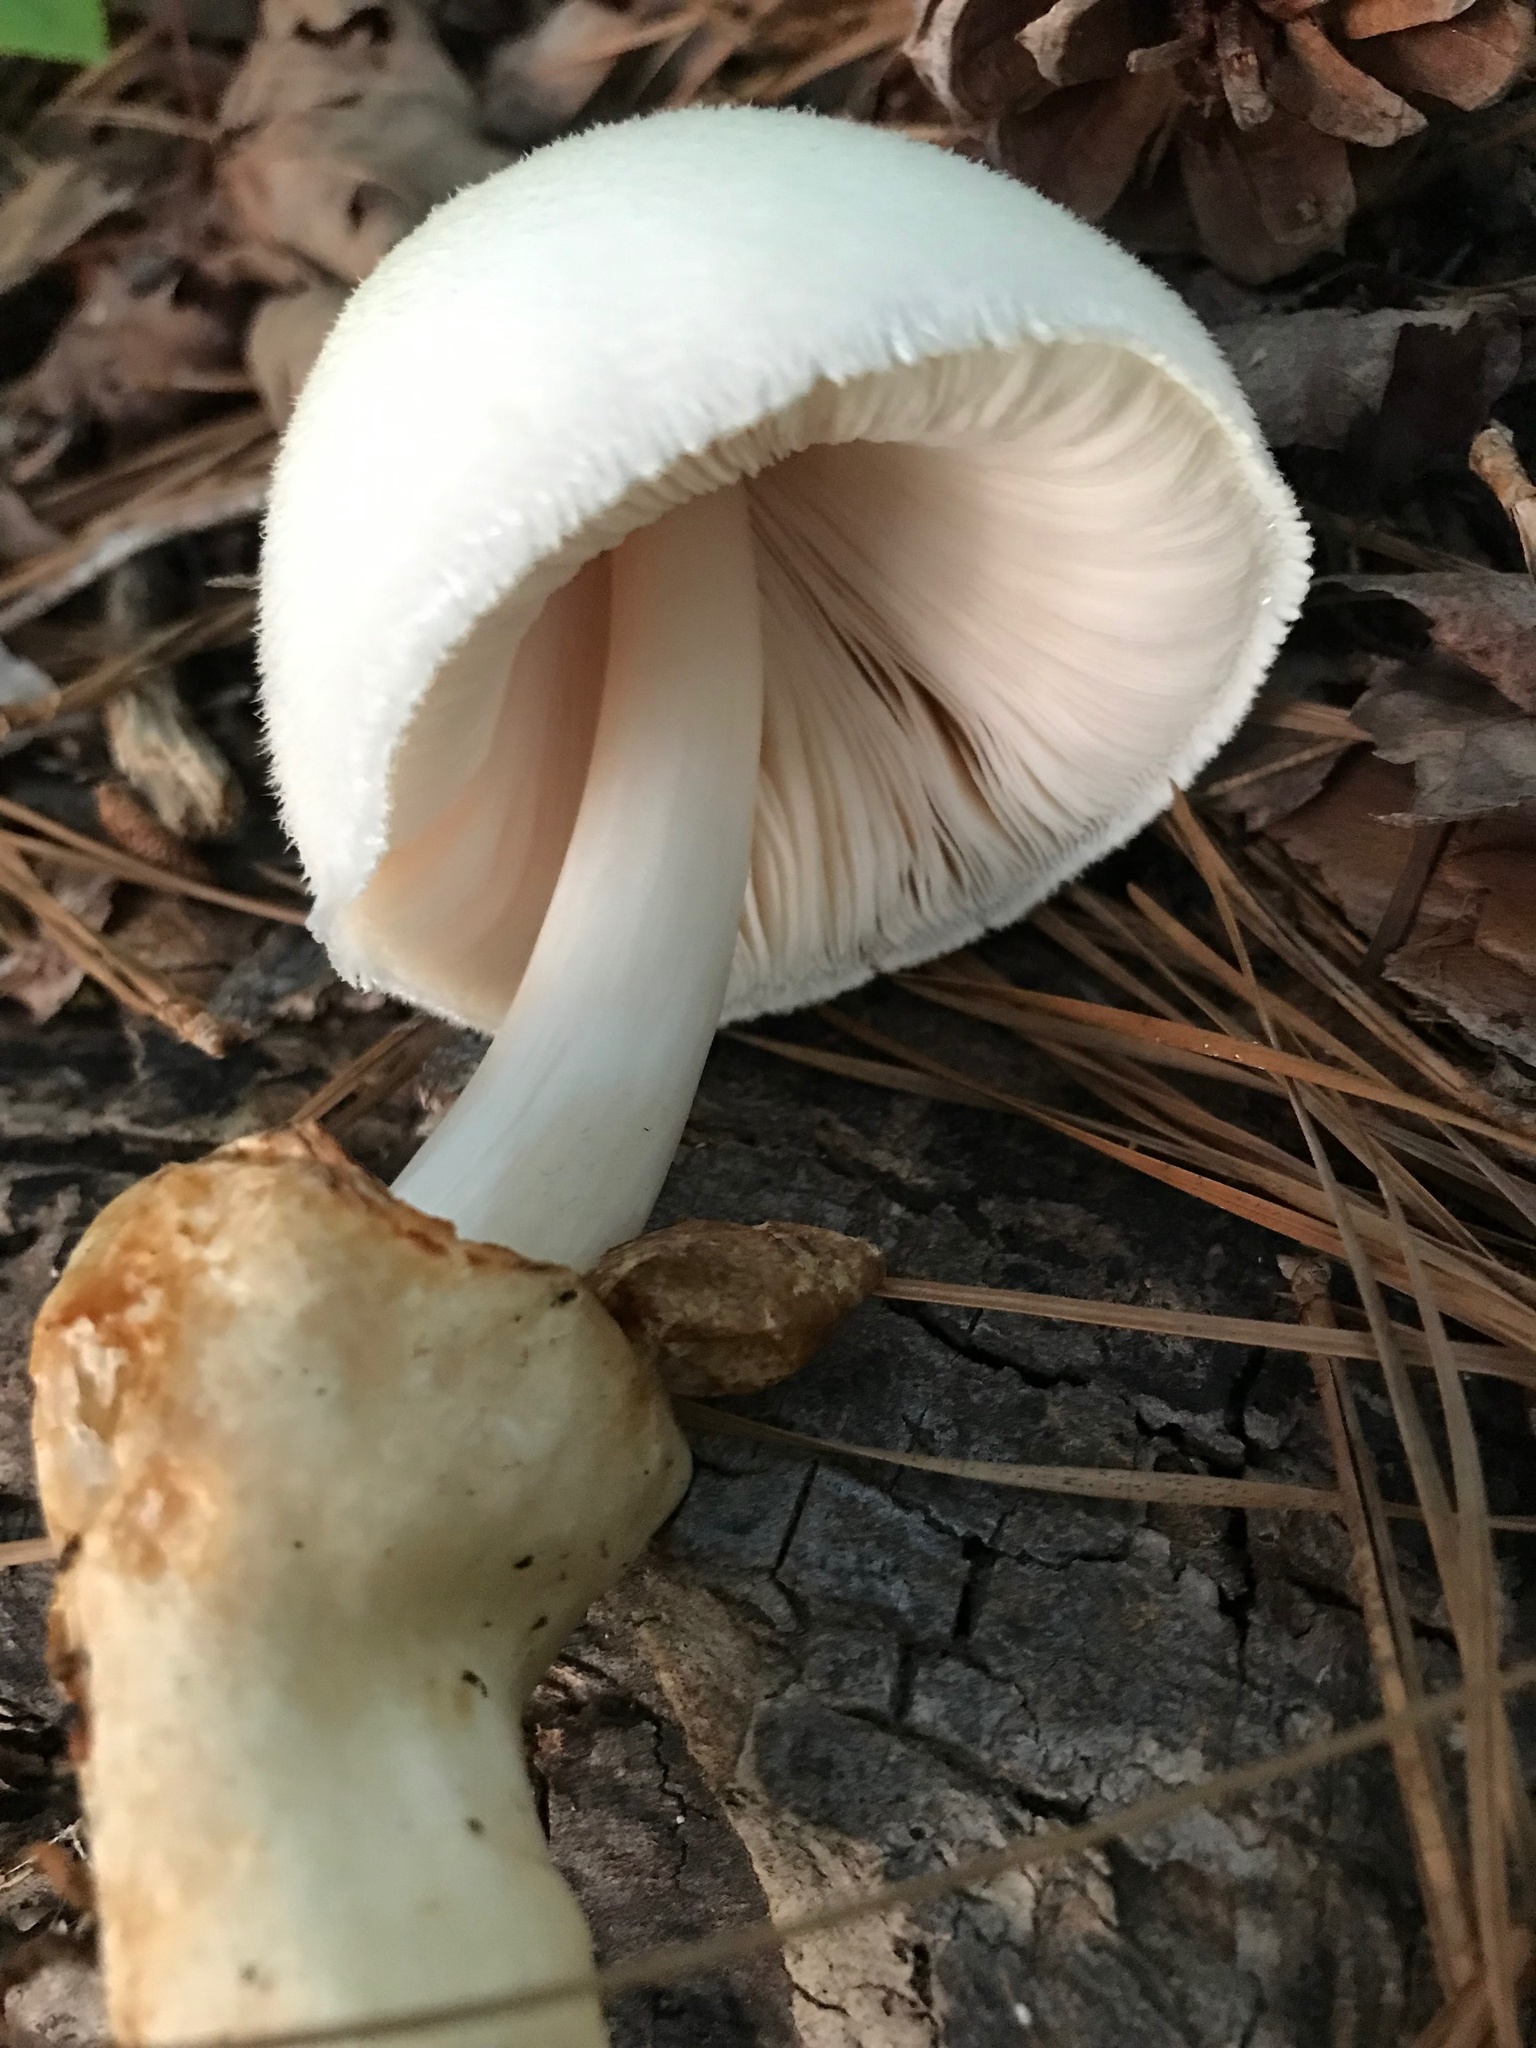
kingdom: Fungi
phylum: Basidiomycota
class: Agaricomycetes
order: Agaricales
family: Pluteaceae
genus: Volvariella
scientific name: Volvariella bombycina
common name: Silky rosegill
